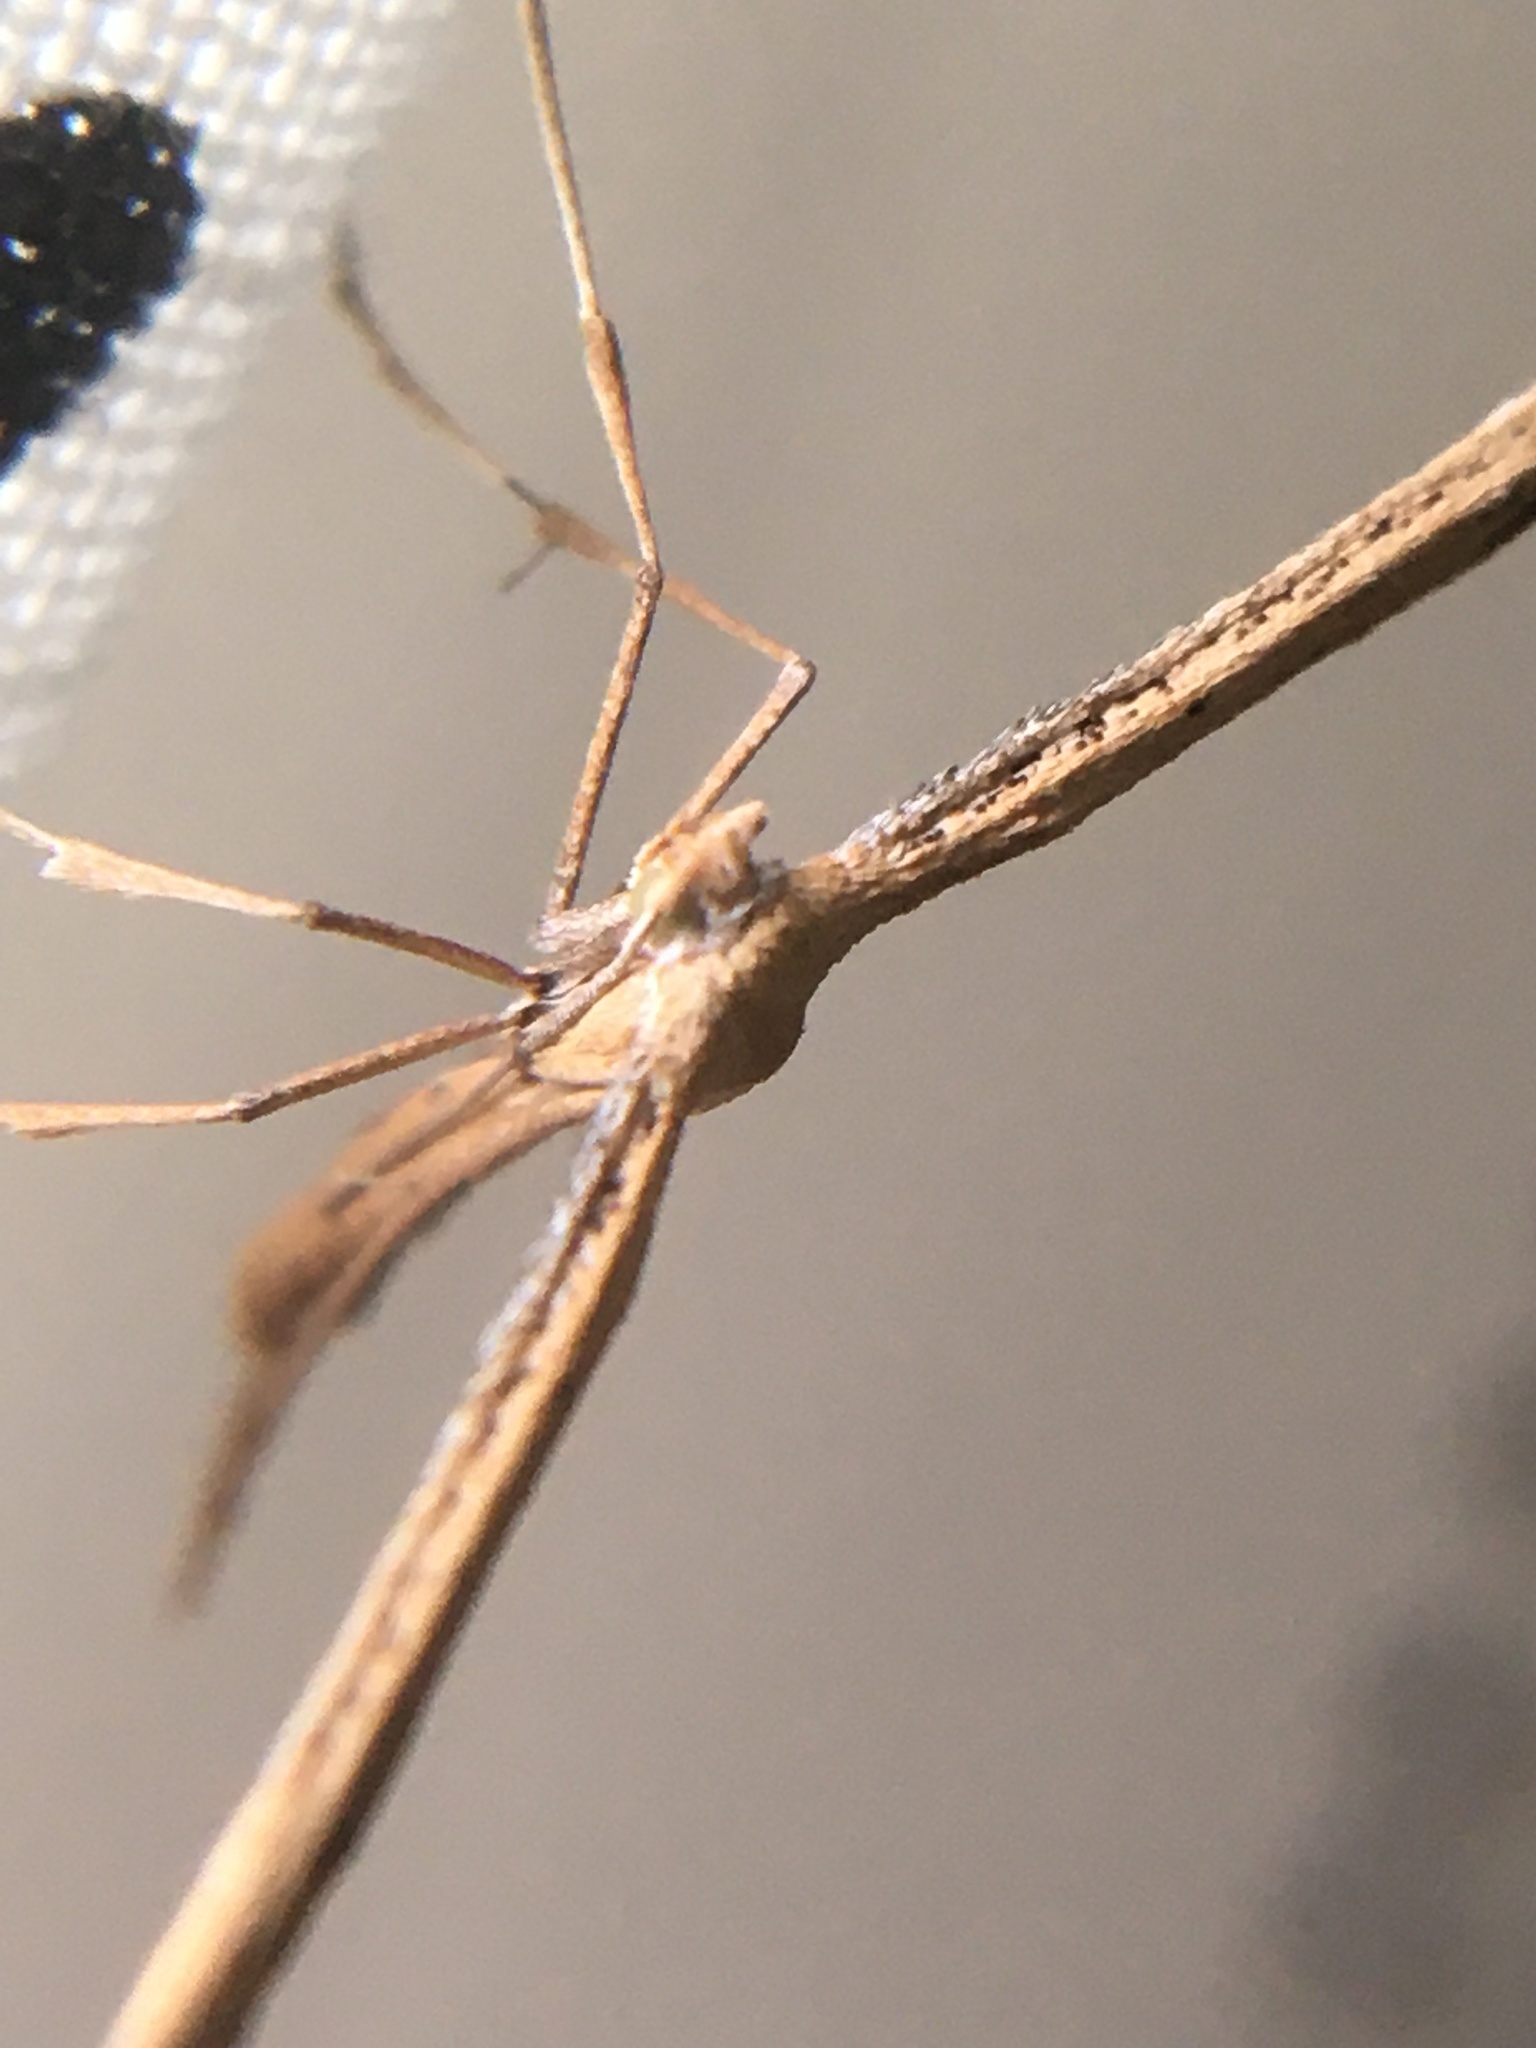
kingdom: Animalia
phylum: Arthropoda
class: Insecta
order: Lepidoptera
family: Pterophoridae
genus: Emmelina
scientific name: Emmelina monodactyla
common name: Common plume
